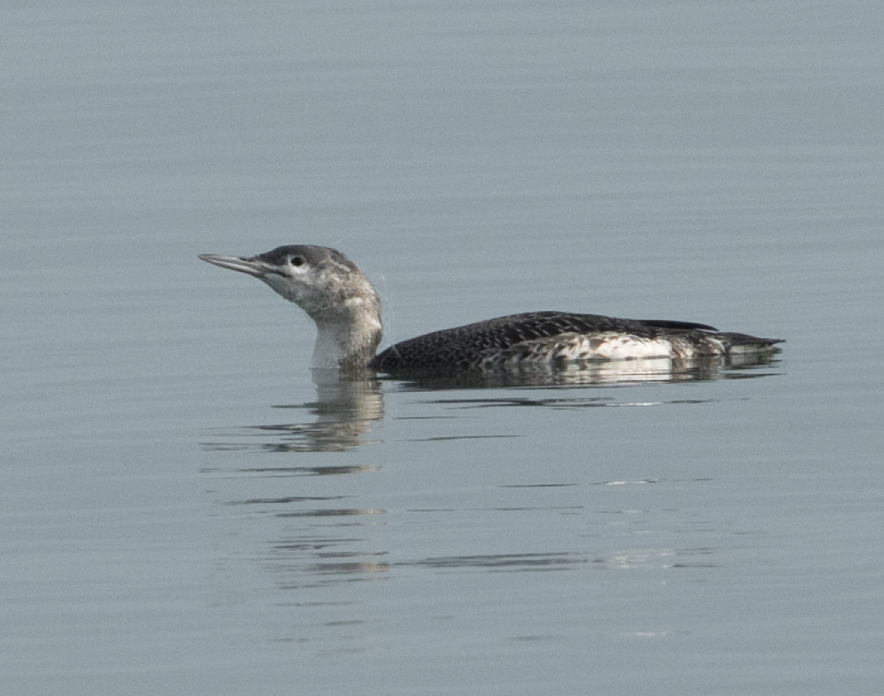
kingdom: Animalia
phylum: Chordata
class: Aves
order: Gaviiformes
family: Gaviidae
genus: Gavia
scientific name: Gavia stellata
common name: Red-throated loon
